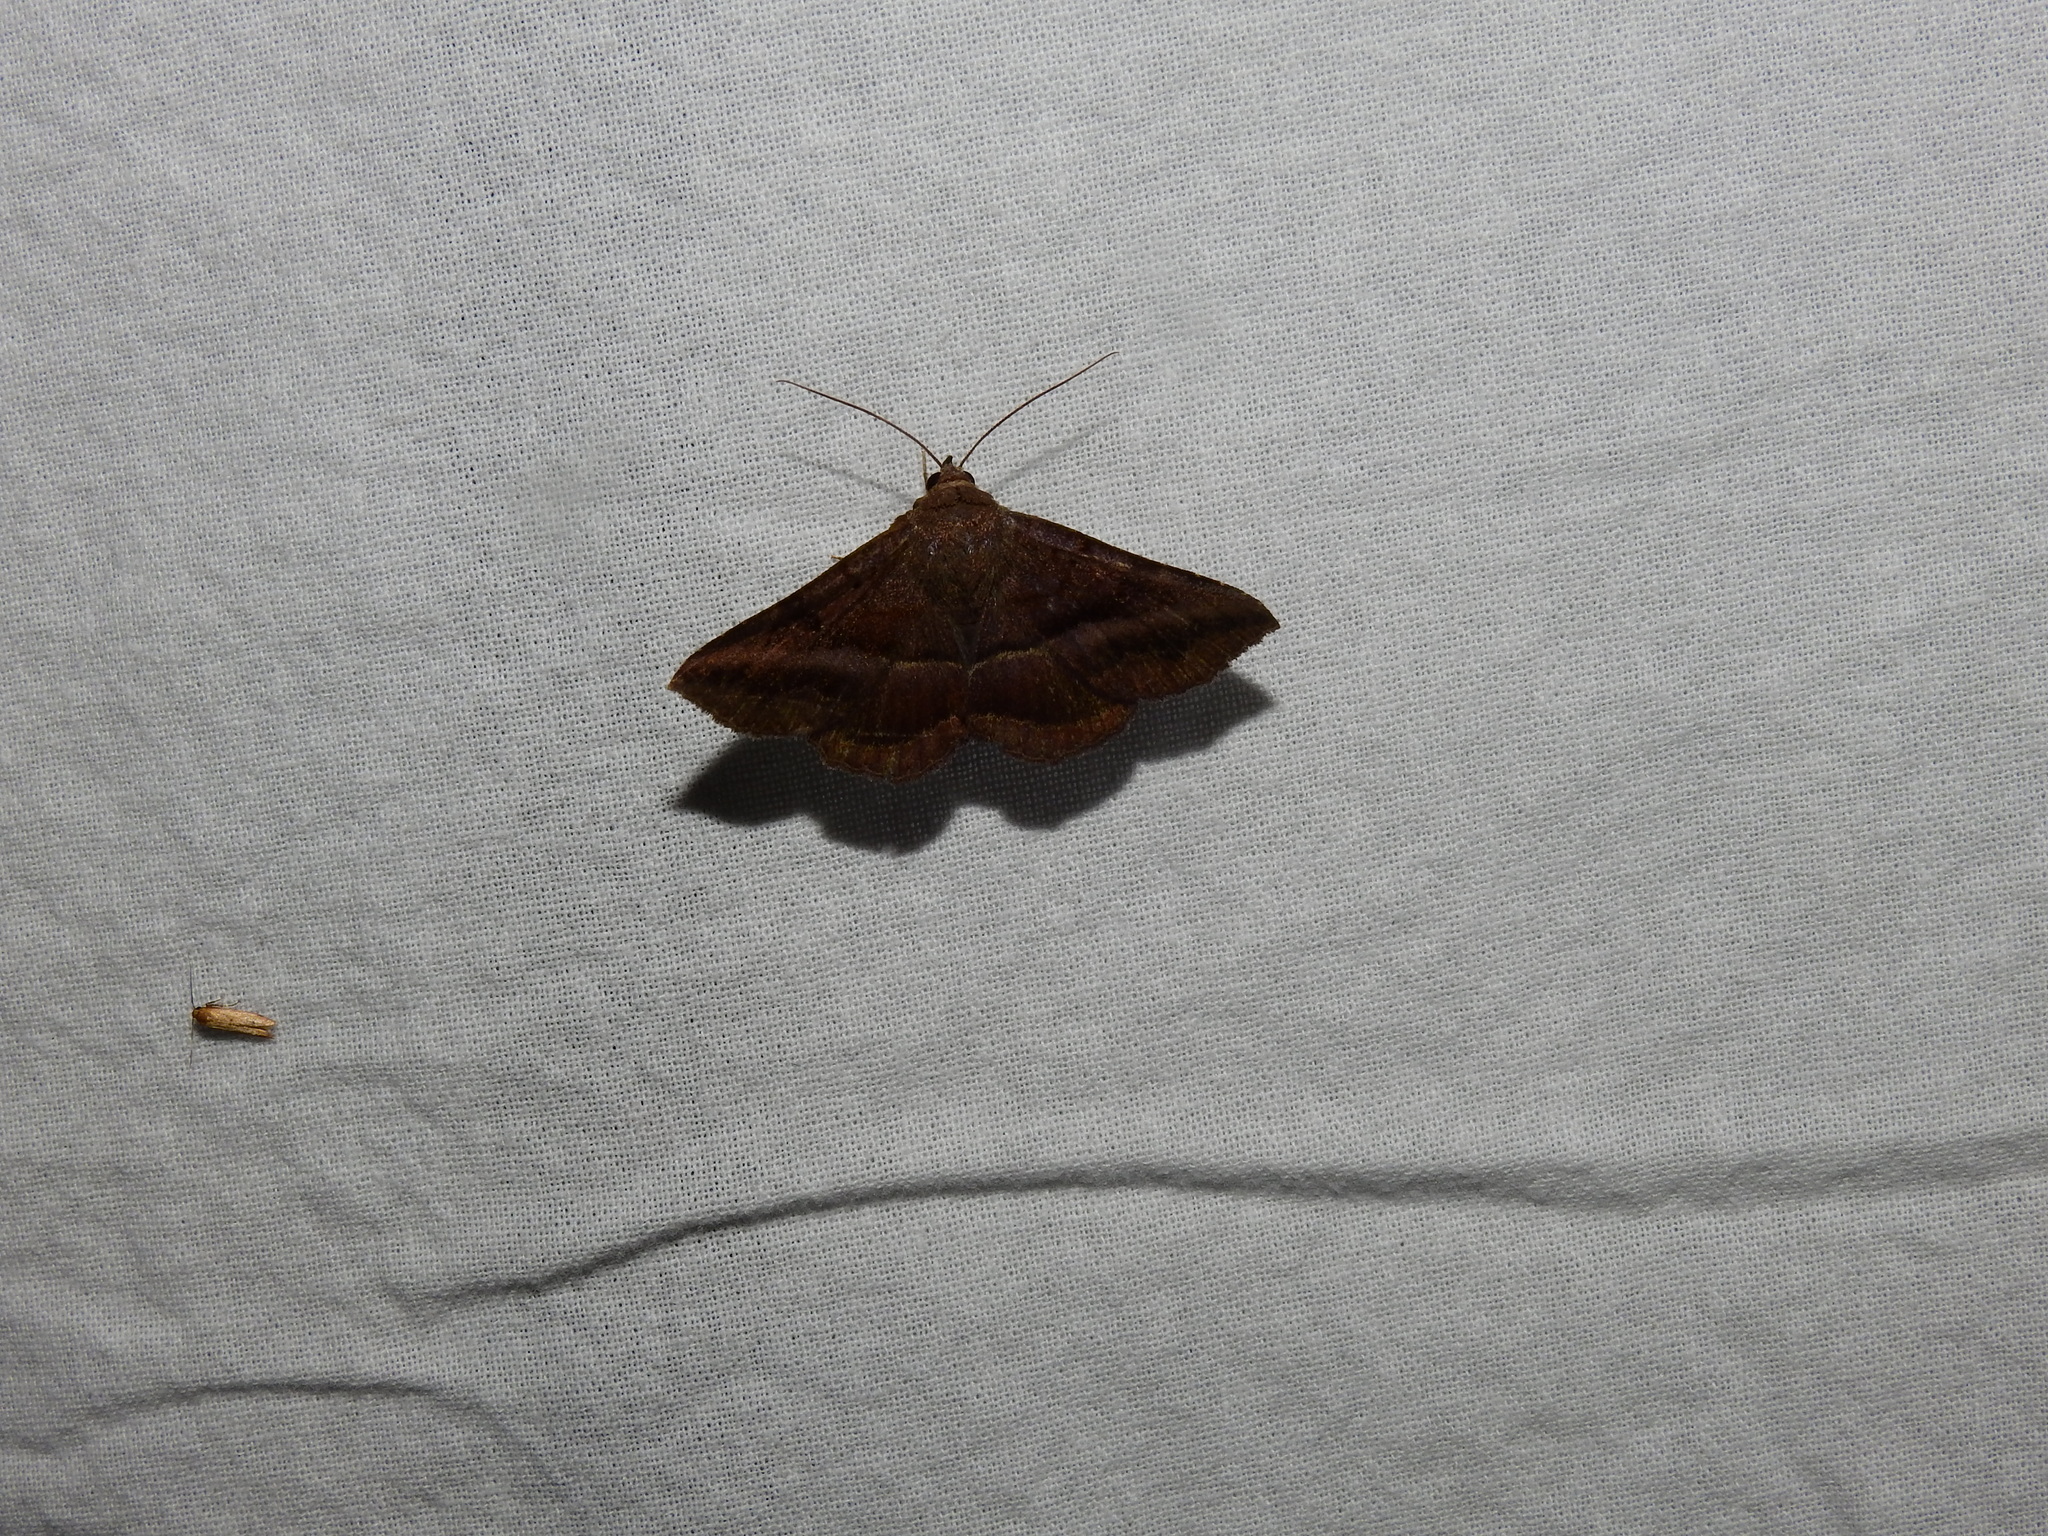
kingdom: Animalia
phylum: Arthropoda
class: Insecta
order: Lepidoptera
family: Erebidae
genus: Lesmone
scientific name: Lesmone detrahens
